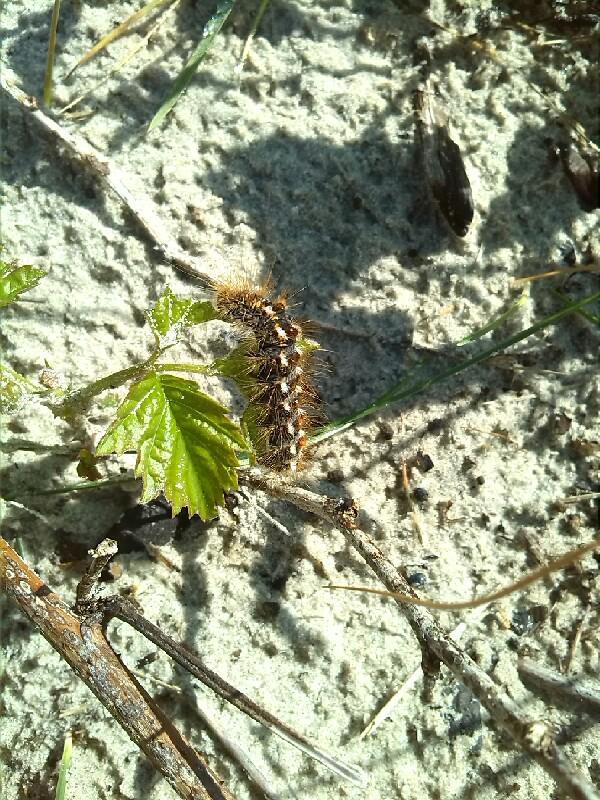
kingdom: Animalia
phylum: Arthropoda
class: Insecta
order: Lepidoptera
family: Noctuidae
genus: Acronicta
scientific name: Acronicta rumicis
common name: Knot grass
